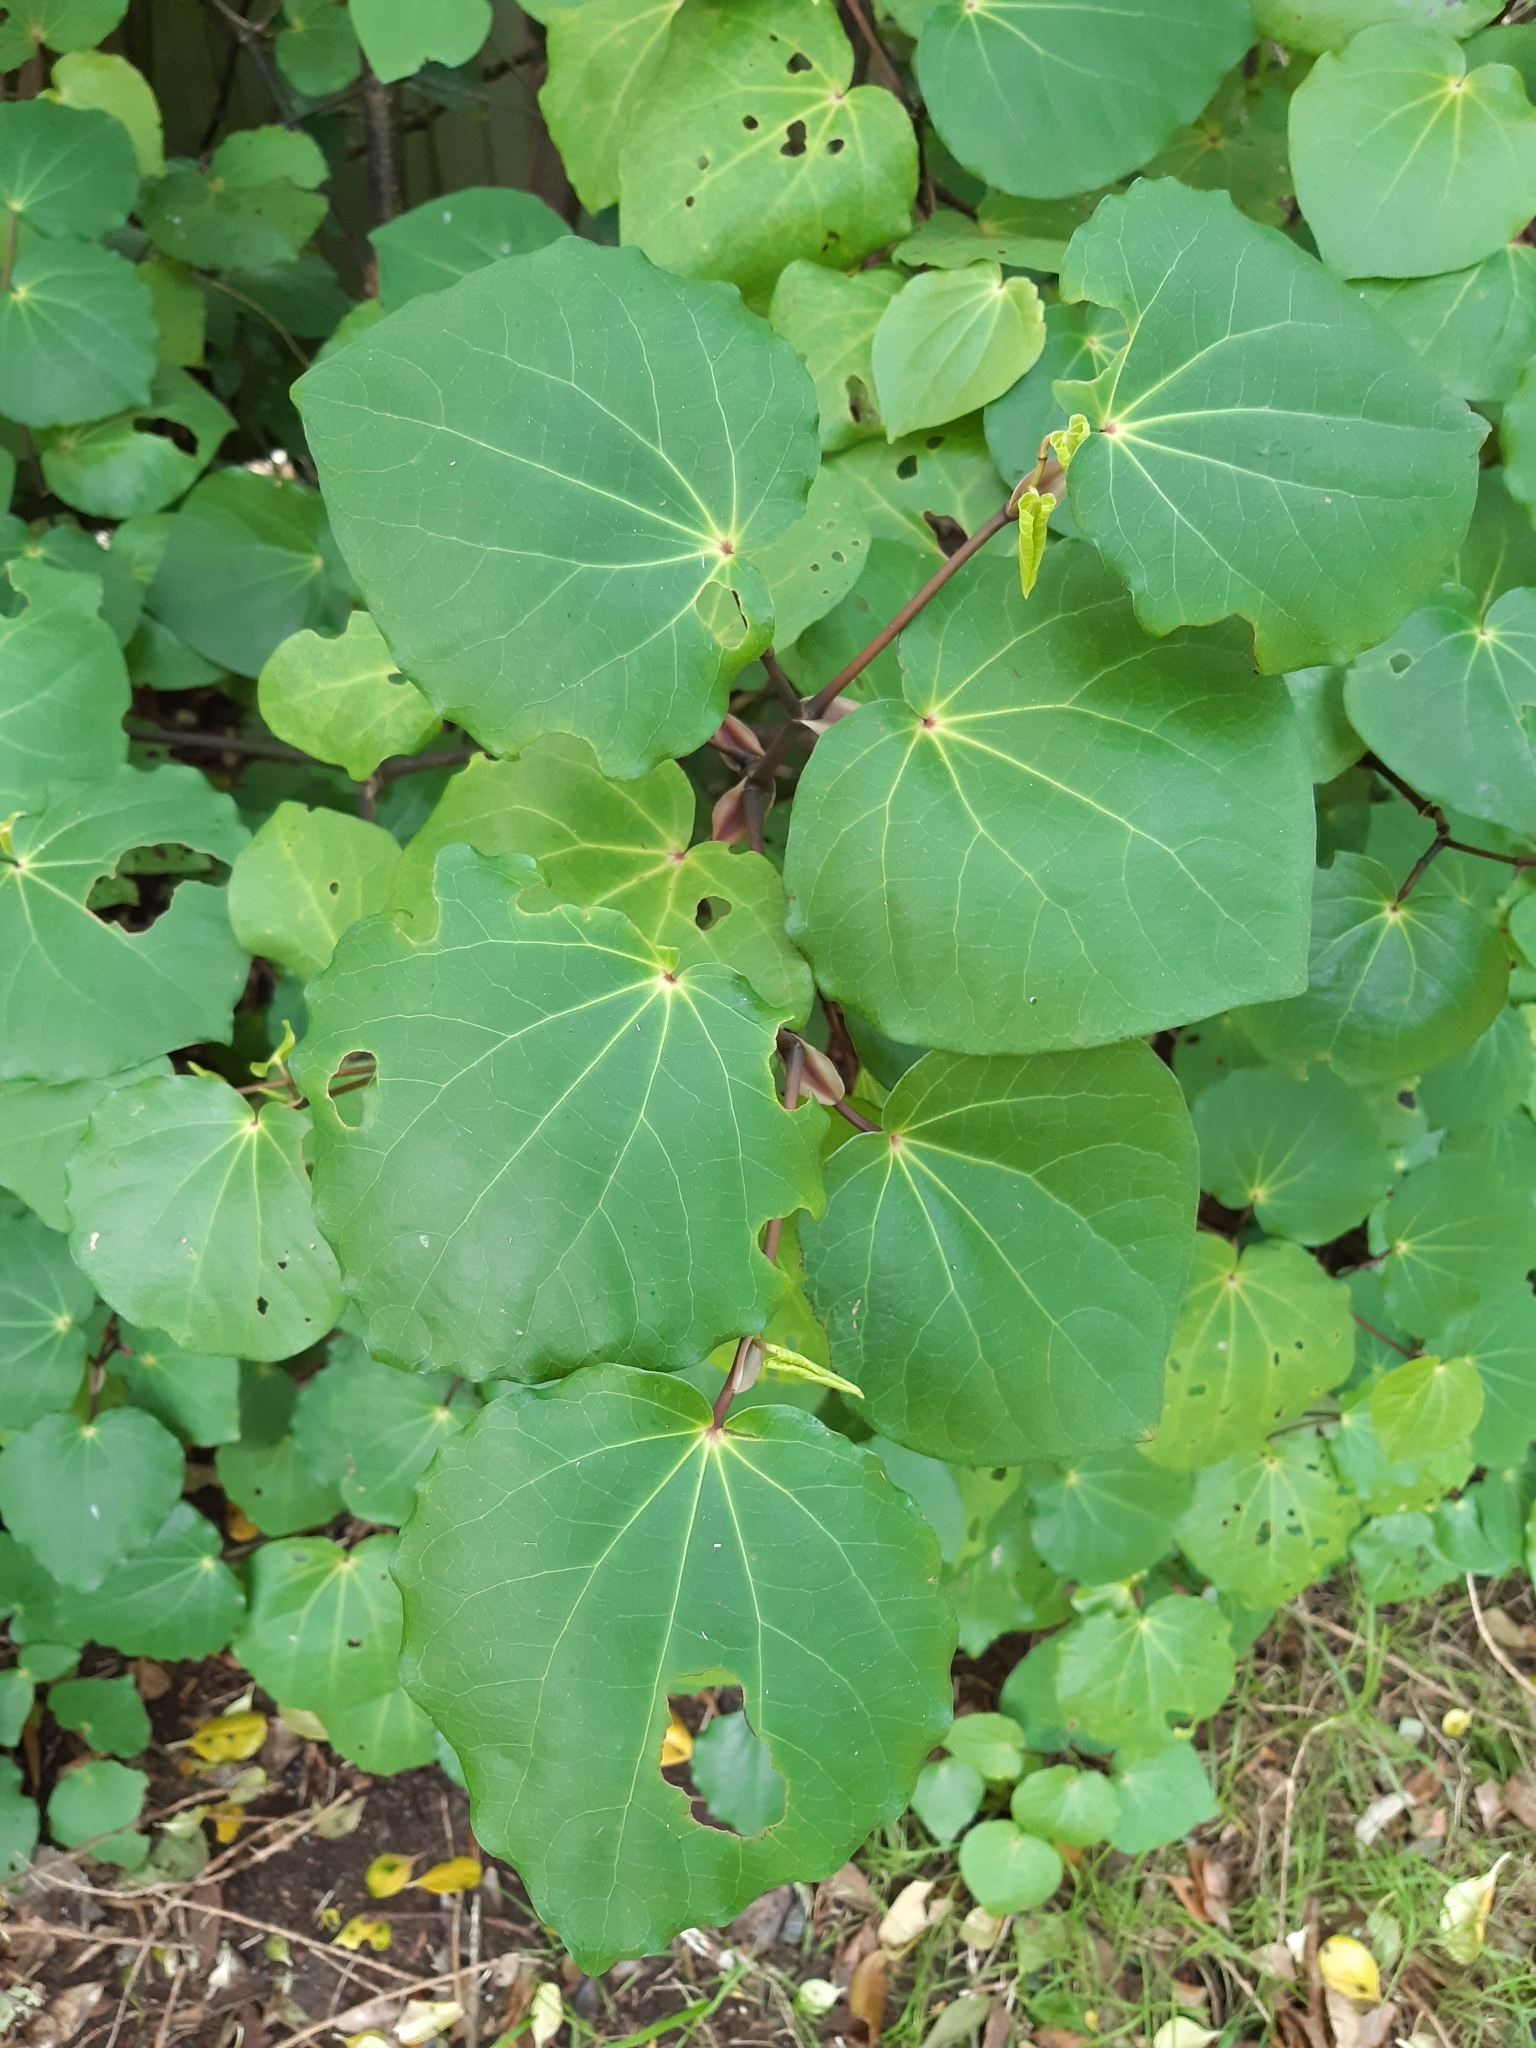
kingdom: Plantae
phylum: Tracheophyta
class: Magnoliopsida
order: Piperales
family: Piperaceae
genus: Macropiper
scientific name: Macropiper excelsum
